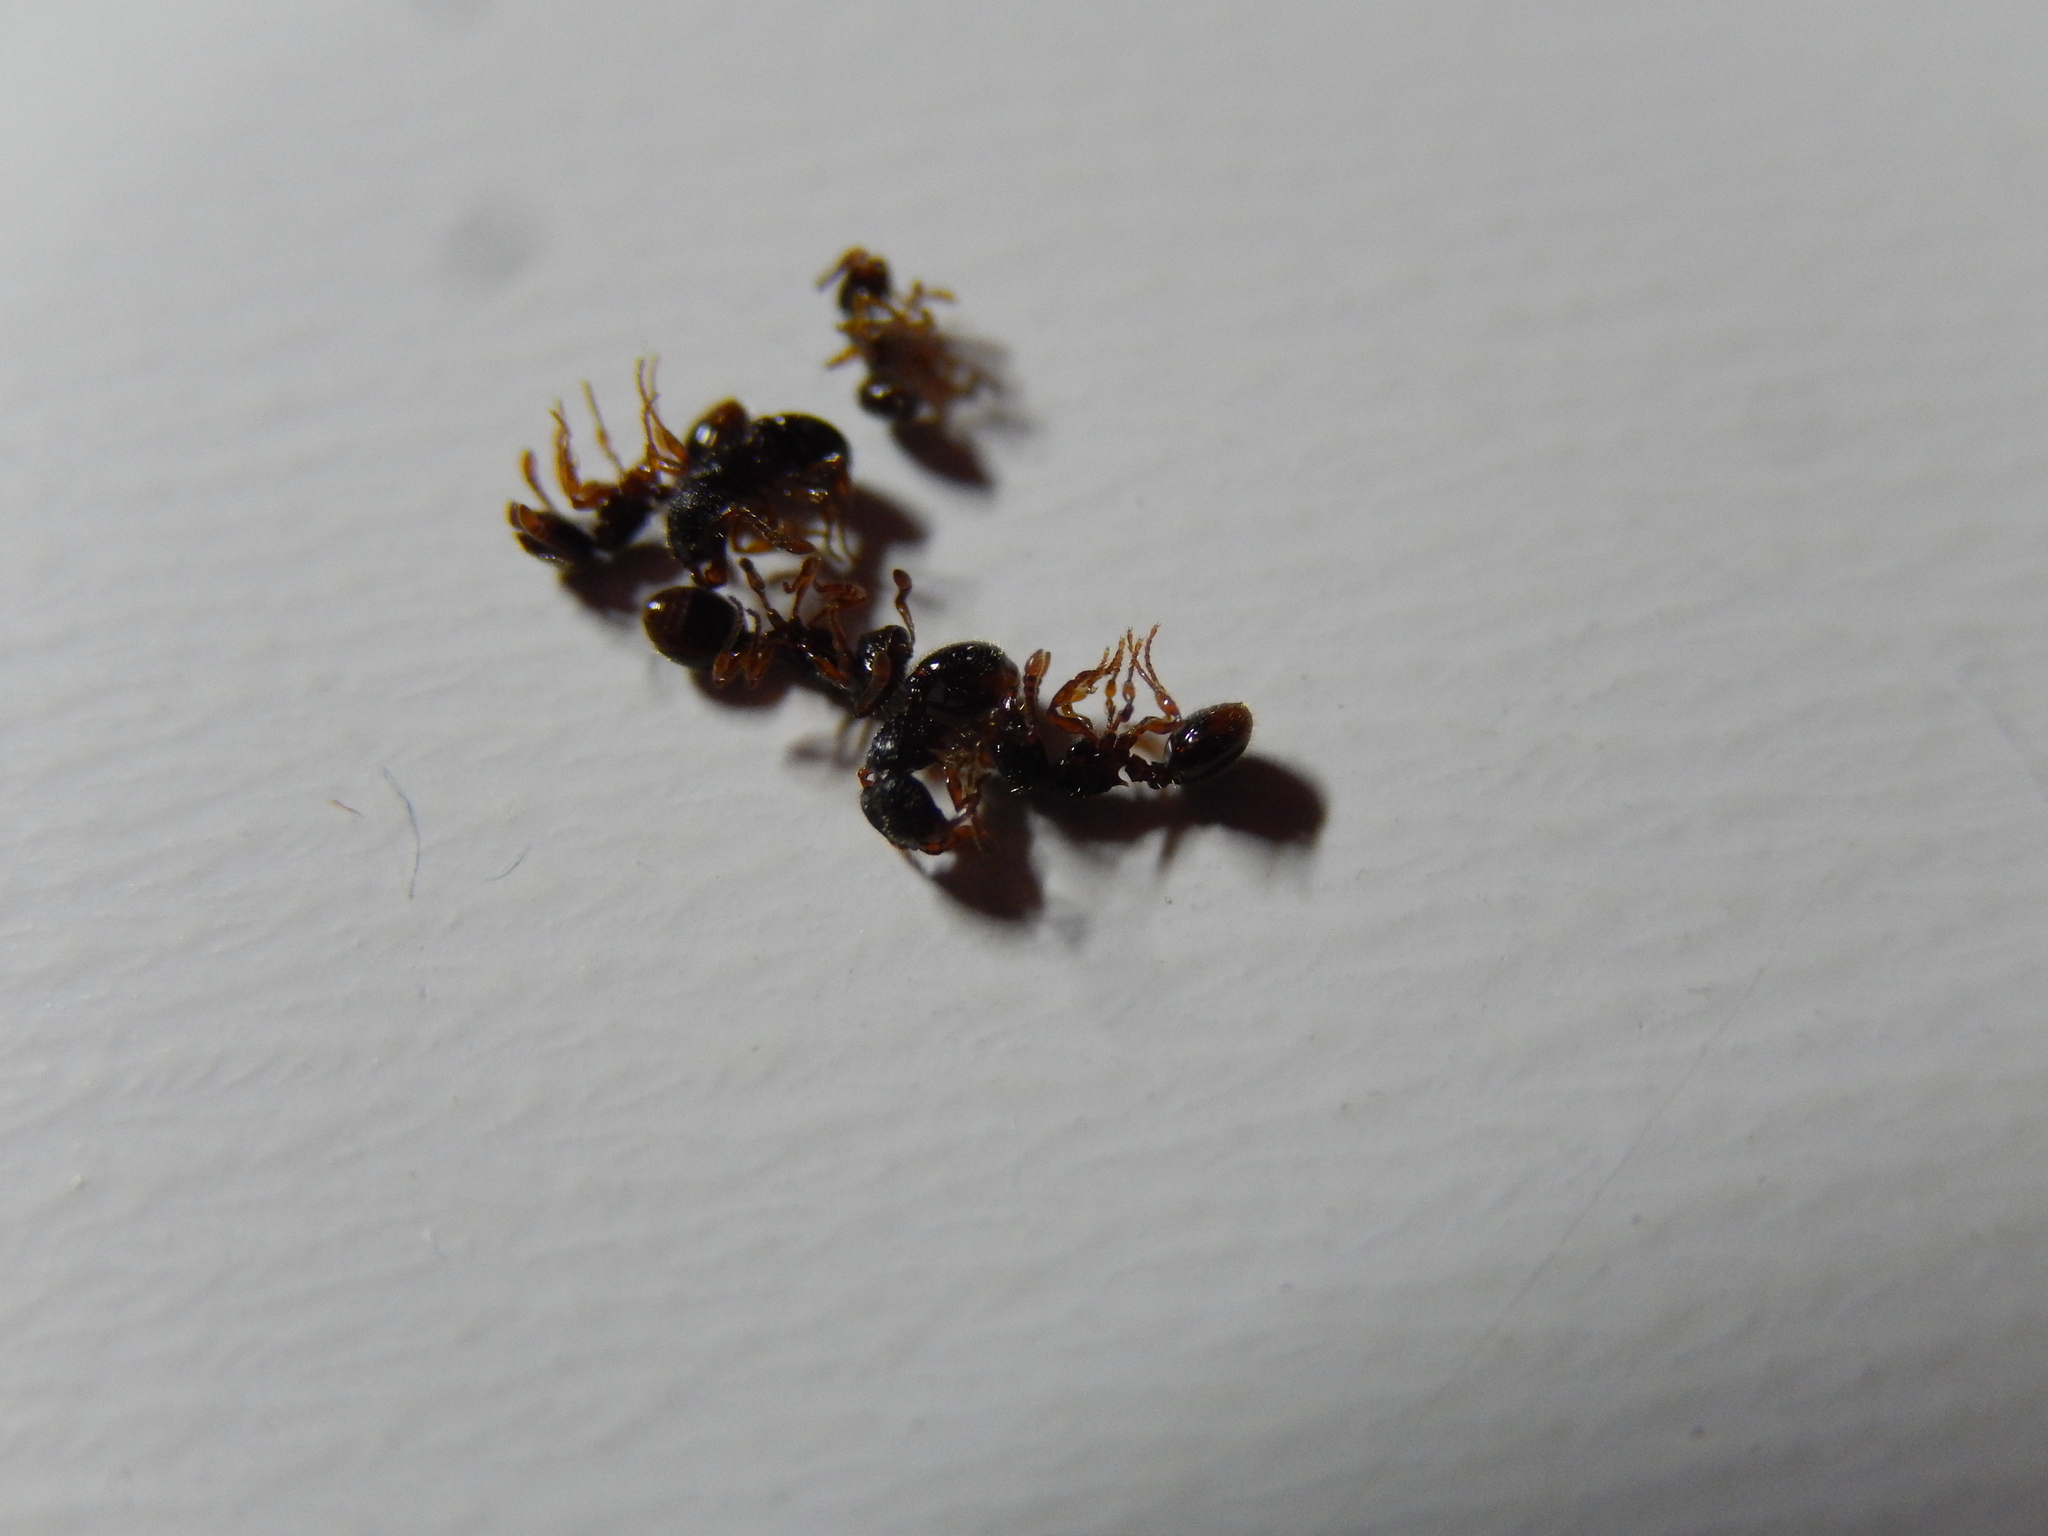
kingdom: Animalia
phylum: Arthropoda
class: Insecta
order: Hymenoptera
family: Formicidae
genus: Myrmecina
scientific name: Myrmecina graminicola
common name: Grass ant
